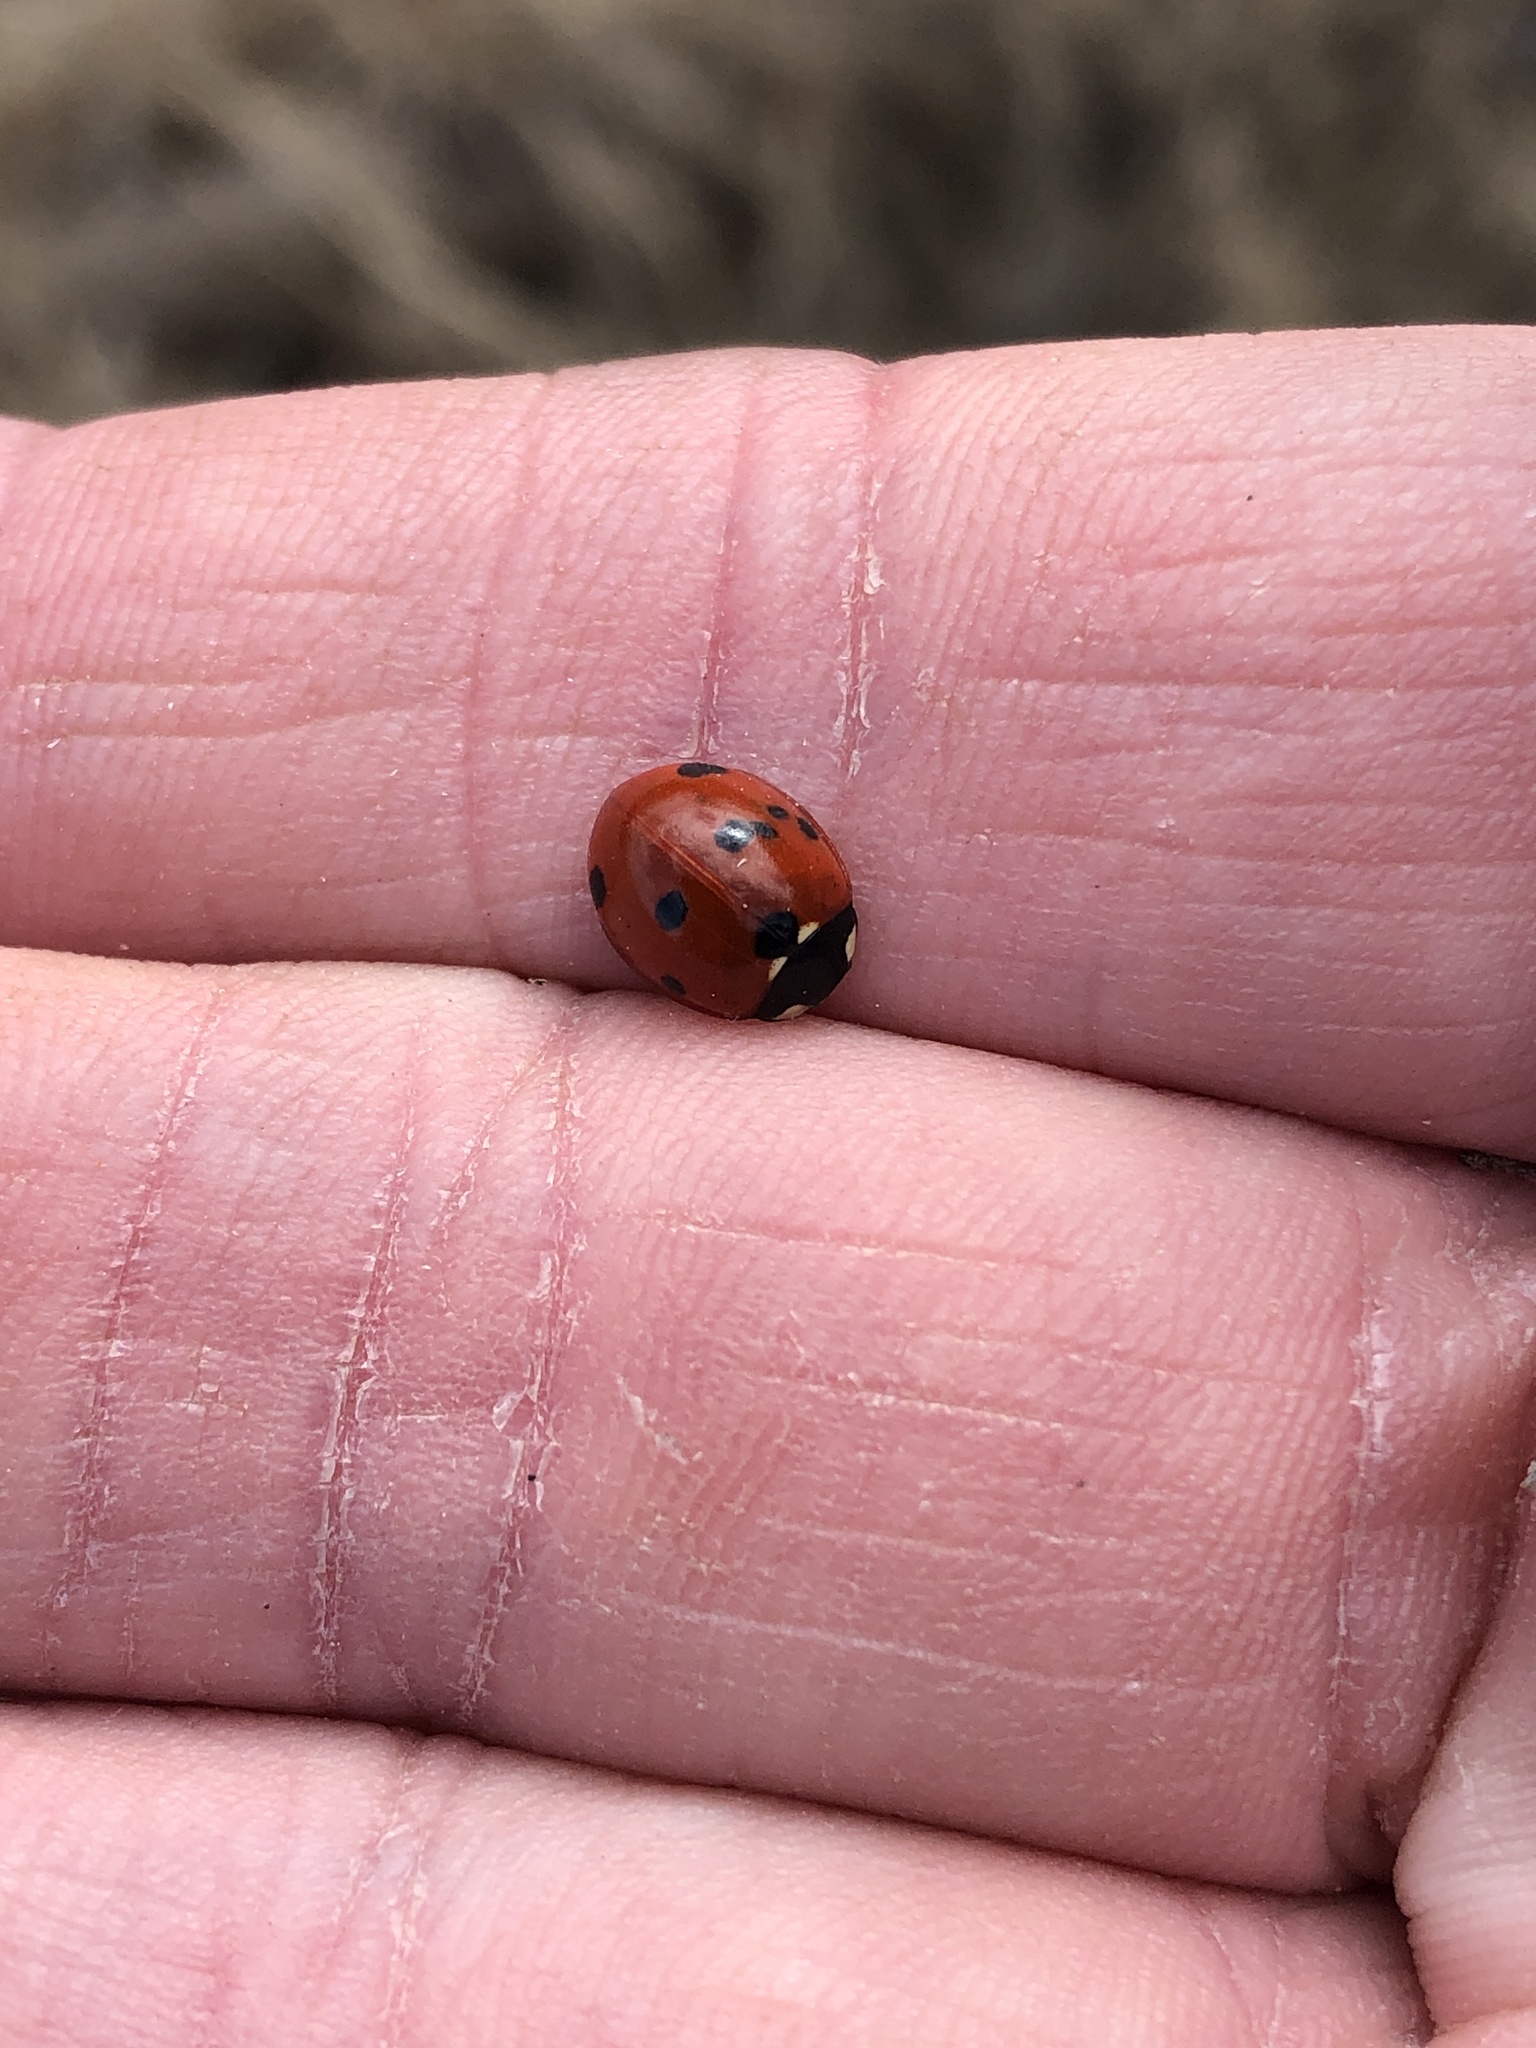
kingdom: Animalia
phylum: Arthropoda
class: Insecta
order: Coleoptera
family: Coccinellidae
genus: Coccinella
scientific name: Coccinella septempunctata
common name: Sevenspotted lady beetle
